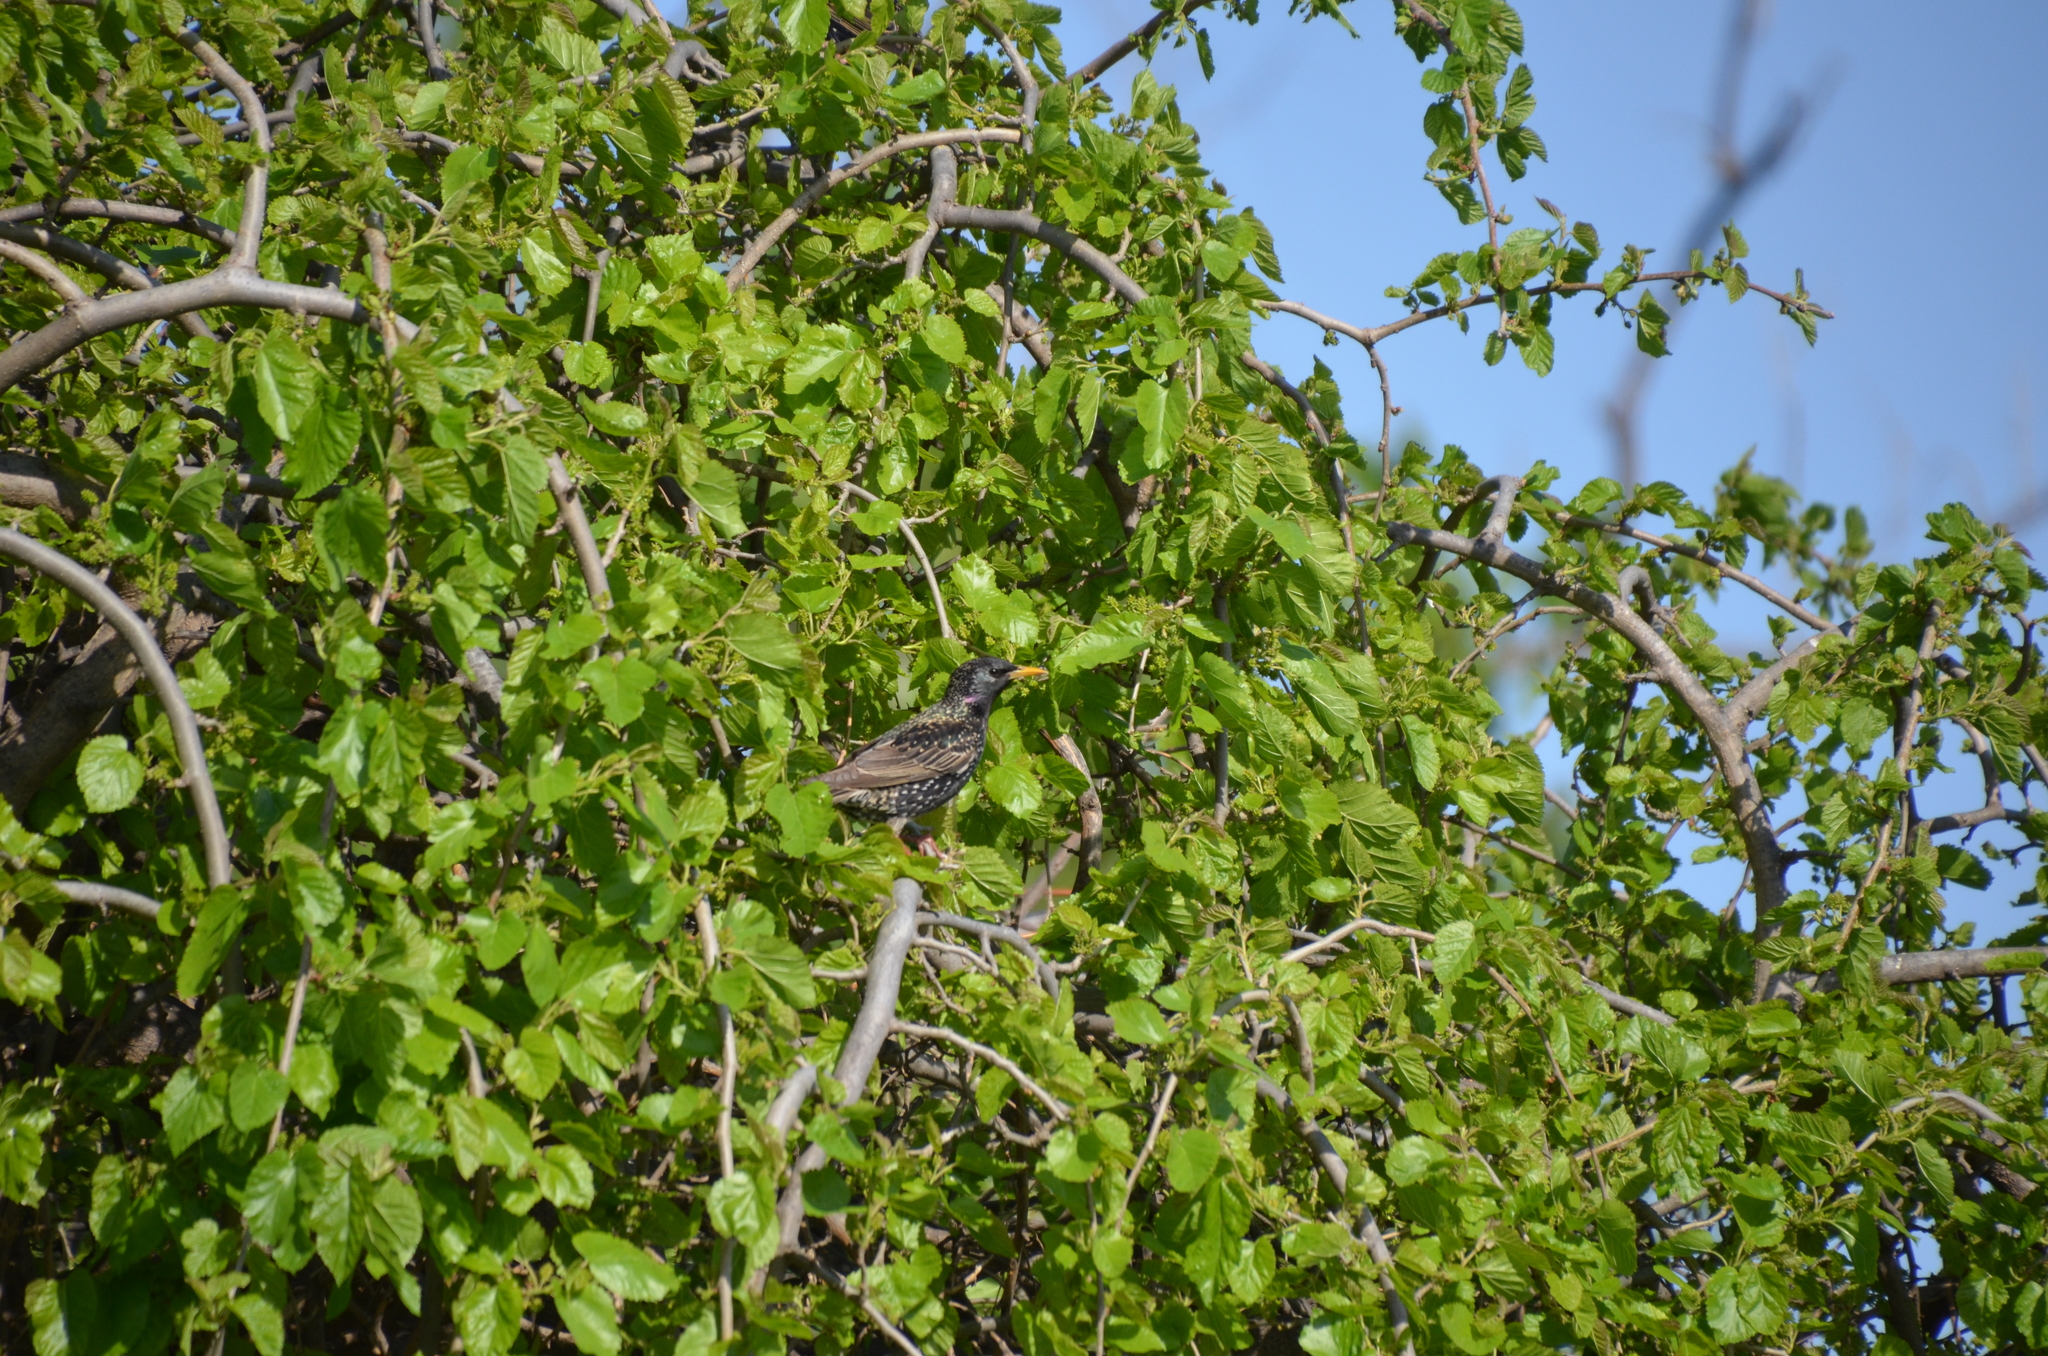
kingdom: Animalia
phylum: Chordata
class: Aves
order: Passeriformes
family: Sturnidae
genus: Sturnus
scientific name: Sturnus vulgaris
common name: Common starling
